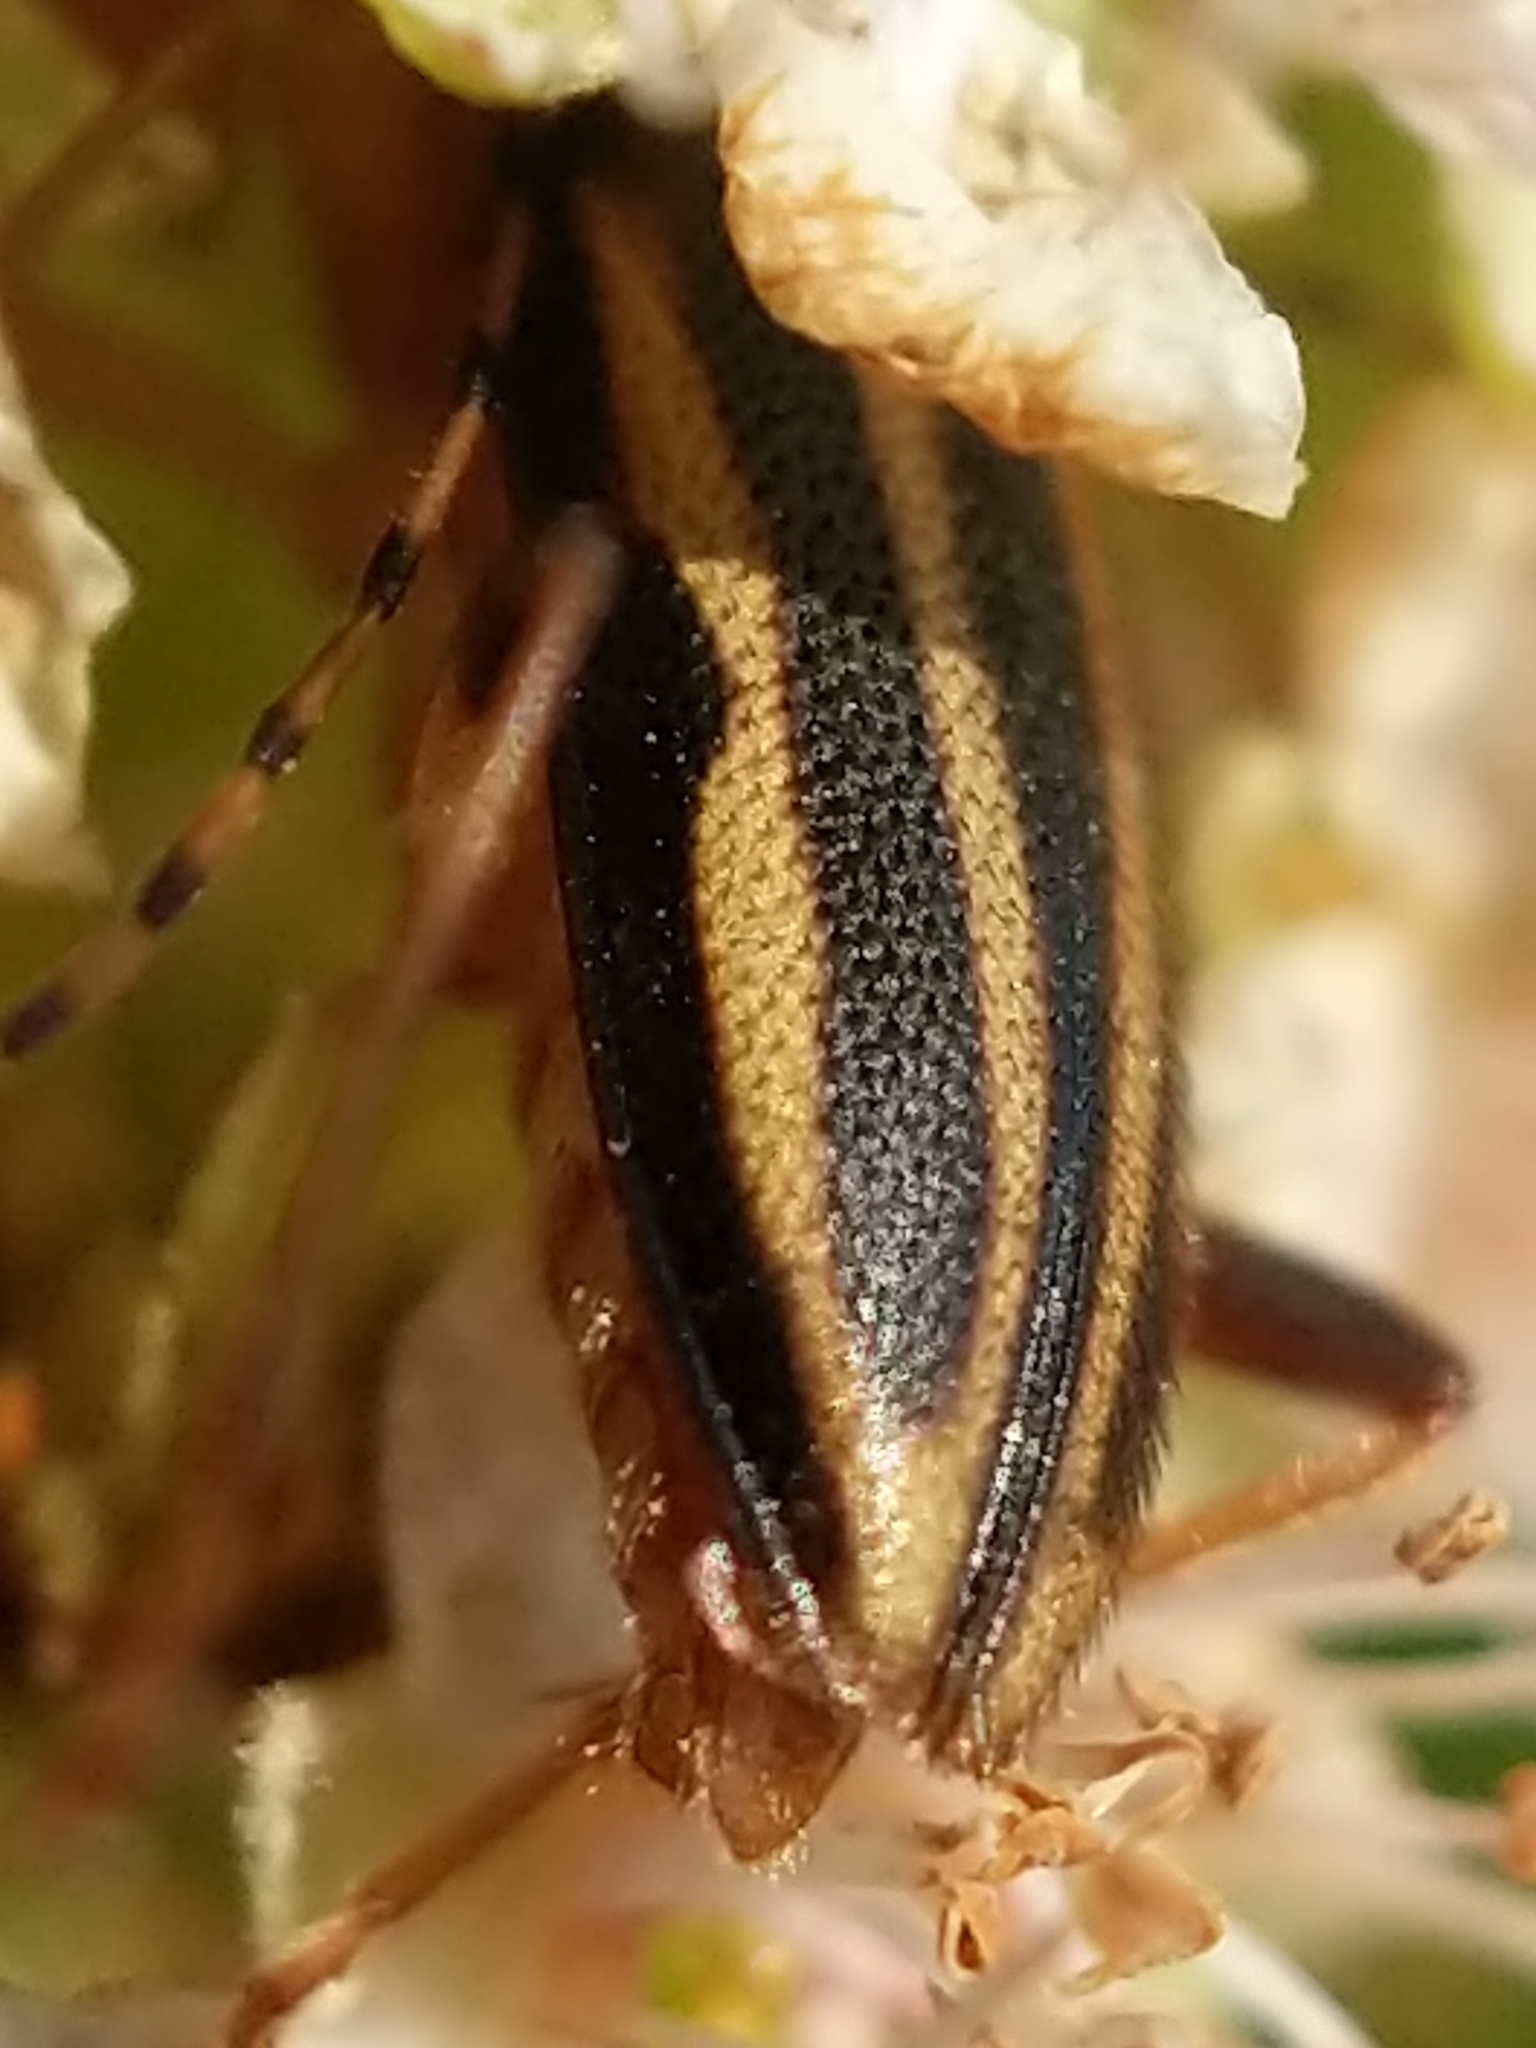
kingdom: Animalia
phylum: Arthropoda
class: Insecta
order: Coleoptera
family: Cerambycidae
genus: Analeptura
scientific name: Analeptura lineola
